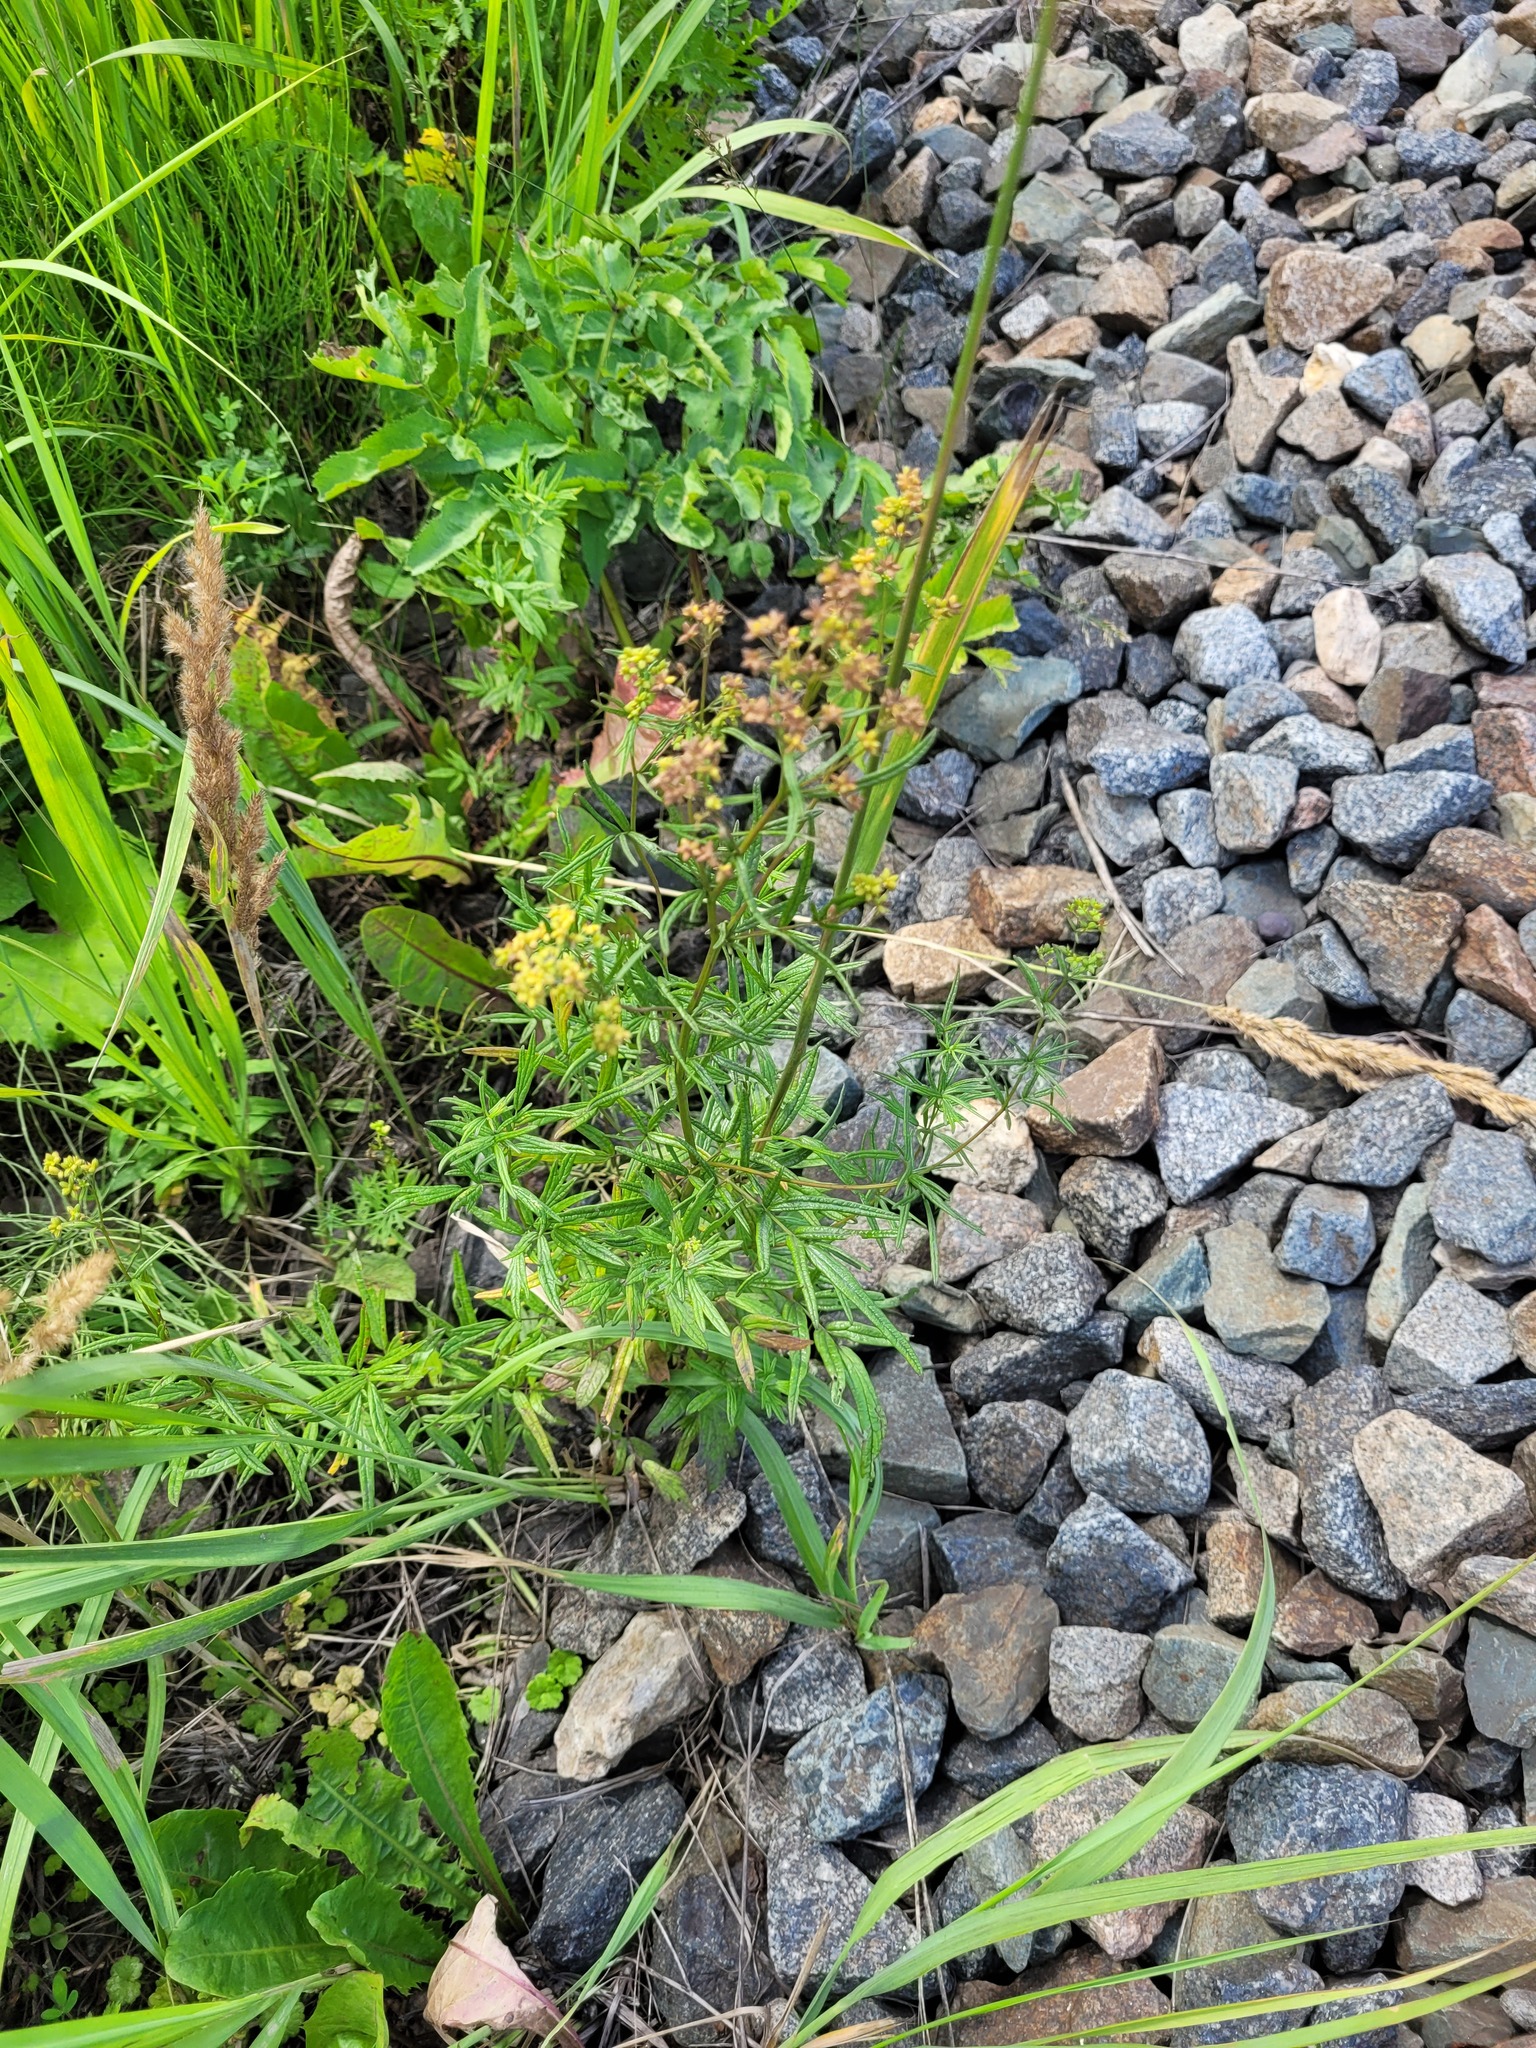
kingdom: Plantae
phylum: Tracheophyta
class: Magnoliopsida
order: Ranunculales
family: Ranunculaceae
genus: Thalictrum
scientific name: Thalictrum lucidum
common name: Shining meadow-rue
